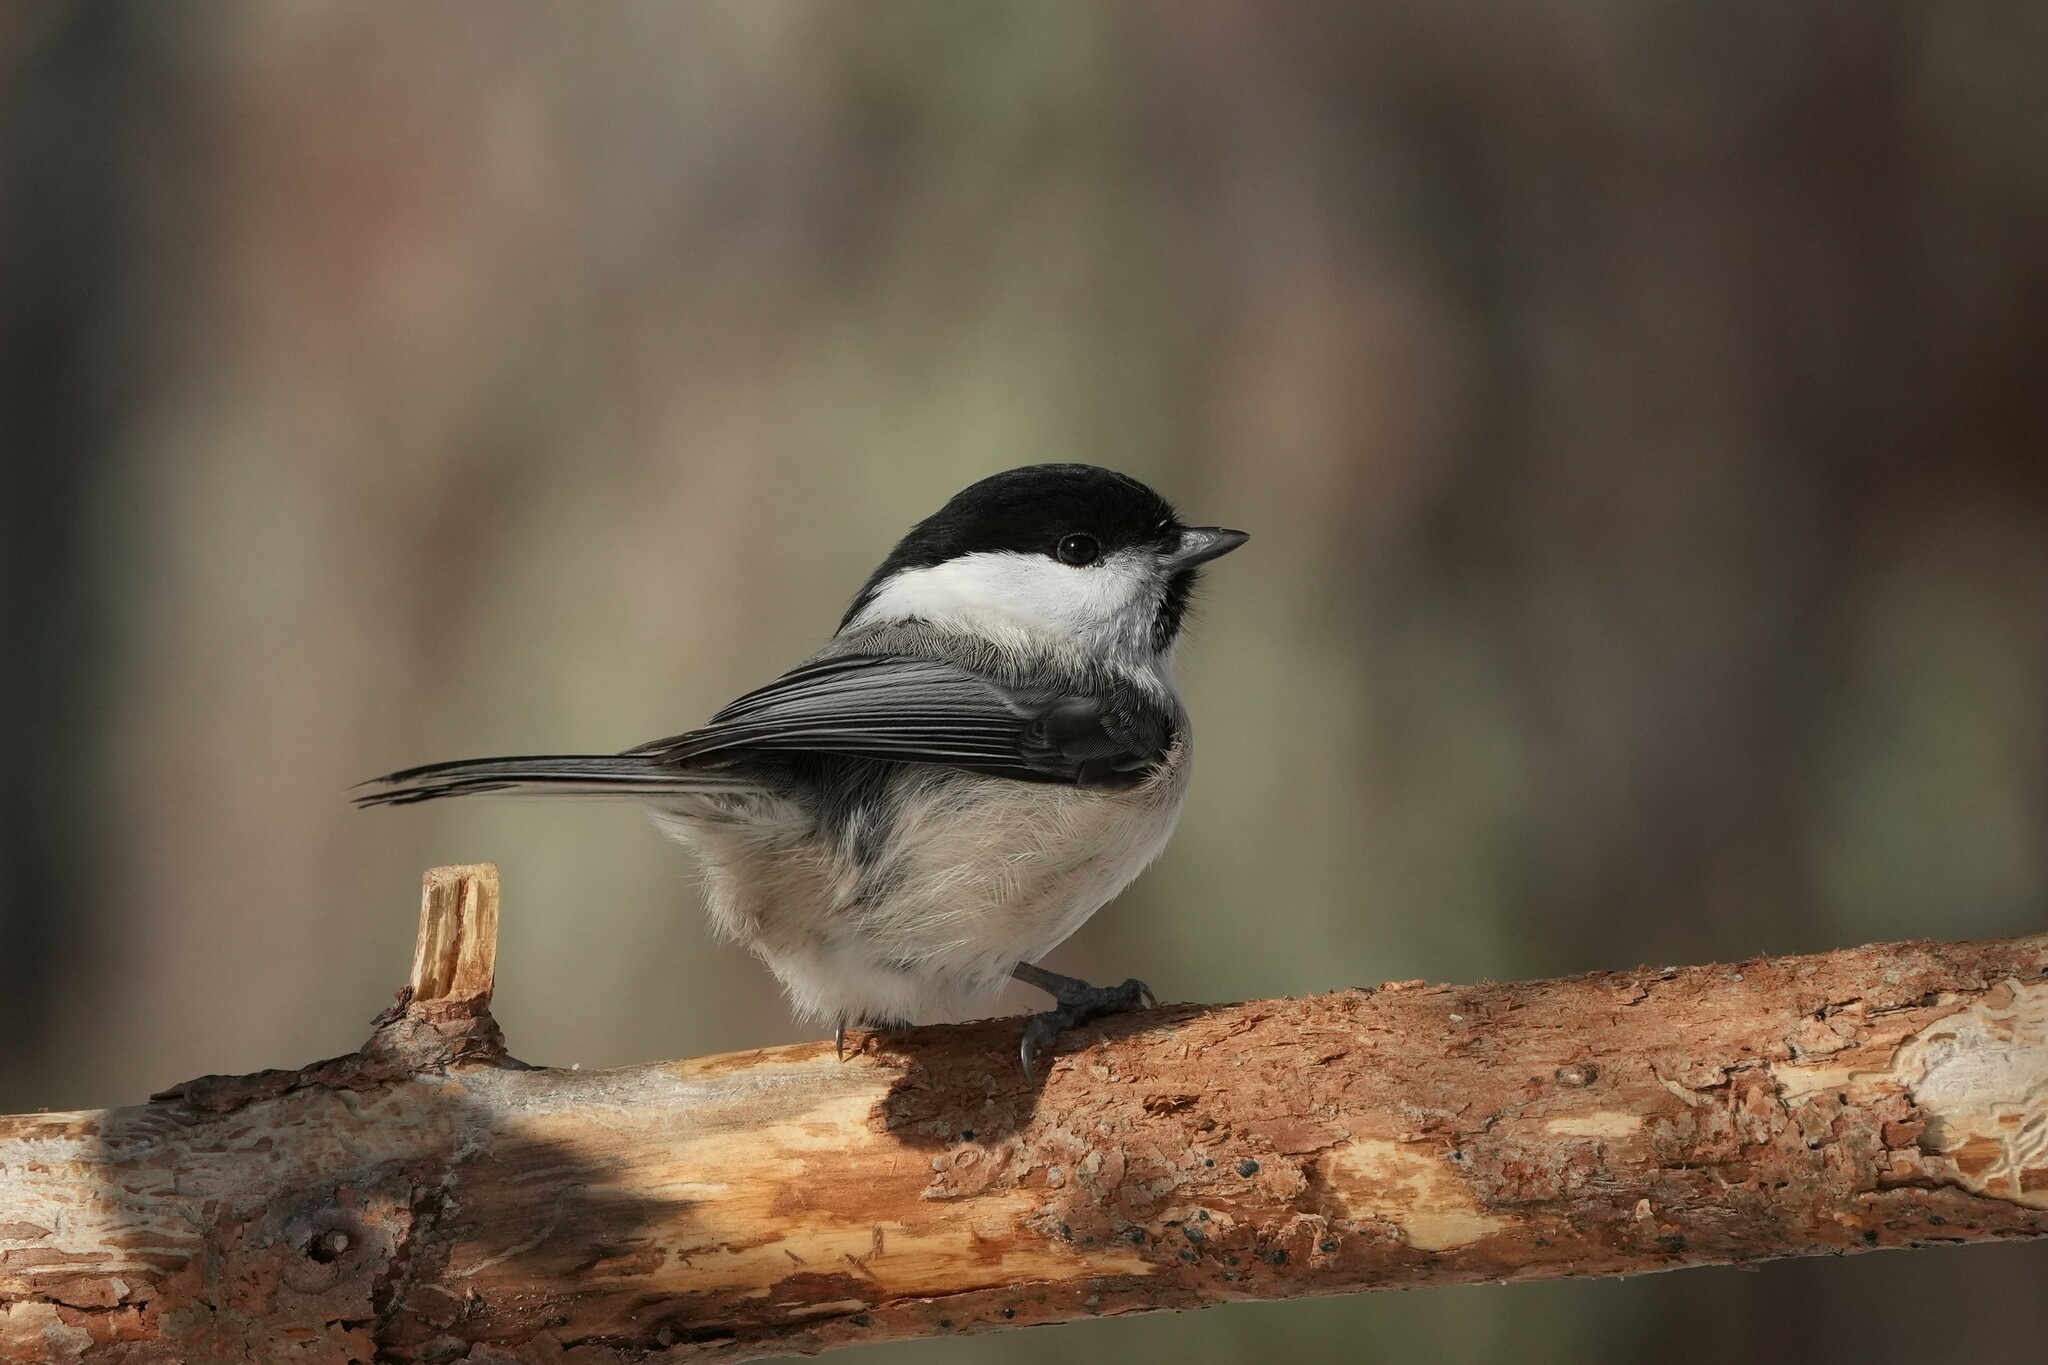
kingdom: Animalia
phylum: Chordata
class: Aves
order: Passeriformes
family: Paridae
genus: Poecile
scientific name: Poecile montanus
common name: Willow tit
